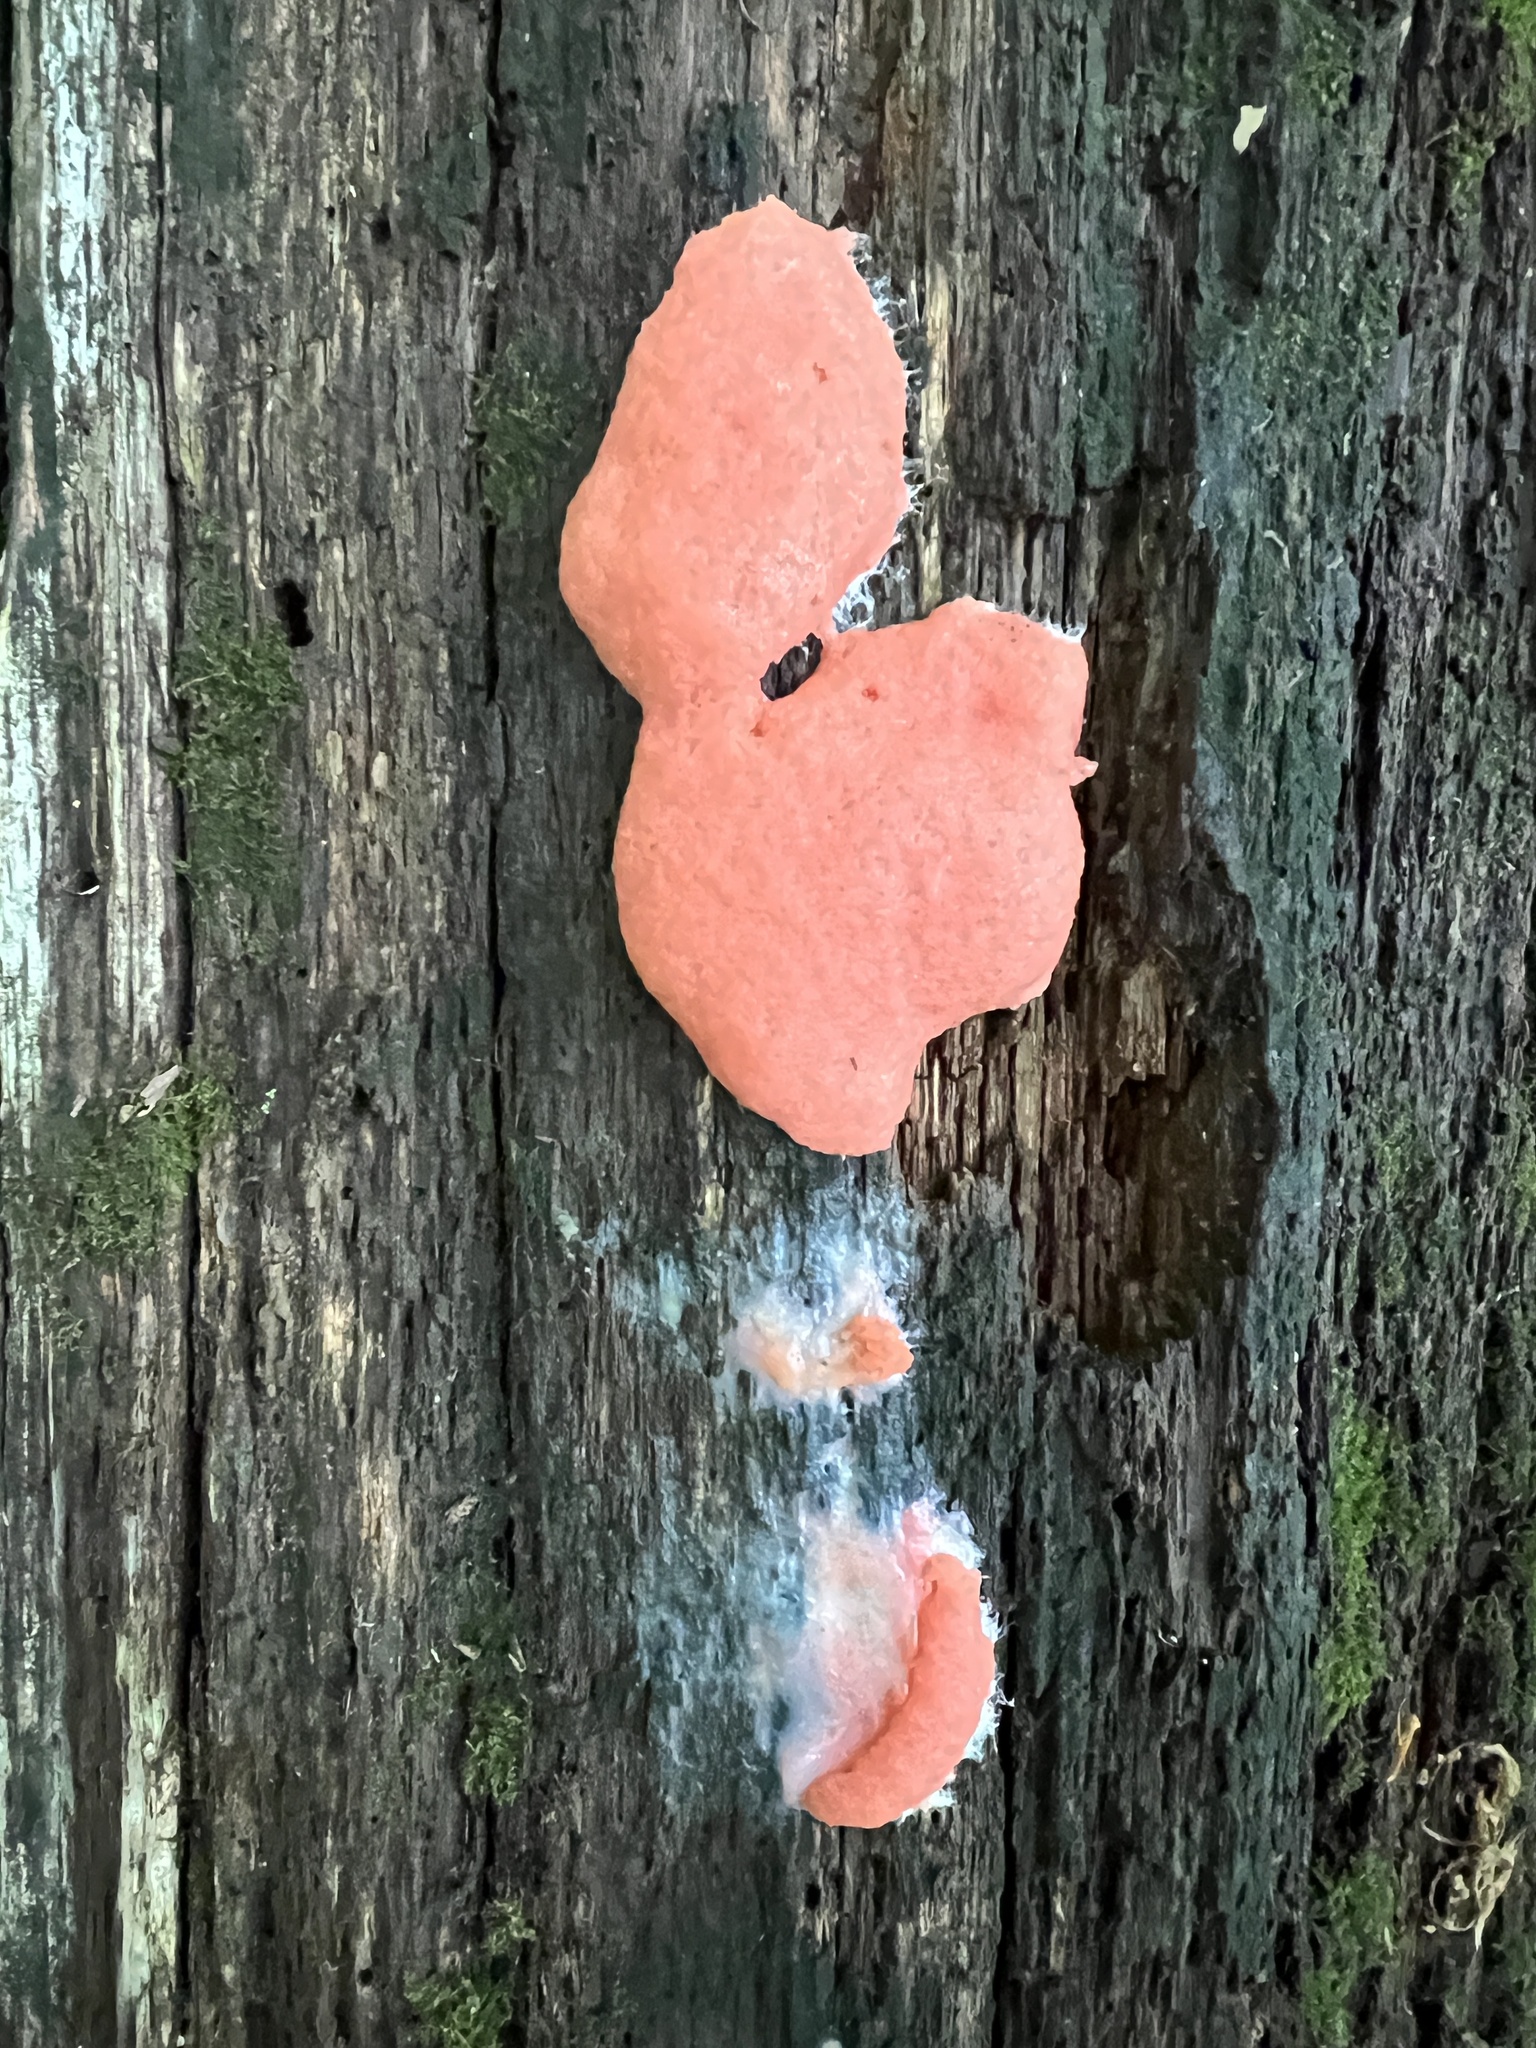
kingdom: Protozoa
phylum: Mycetozoa
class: Myxomycetes
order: Cribrariales
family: Tubiferaceae
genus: Tubifera
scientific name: Tubifera ferruginosa
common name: Red raspberry slime mold
